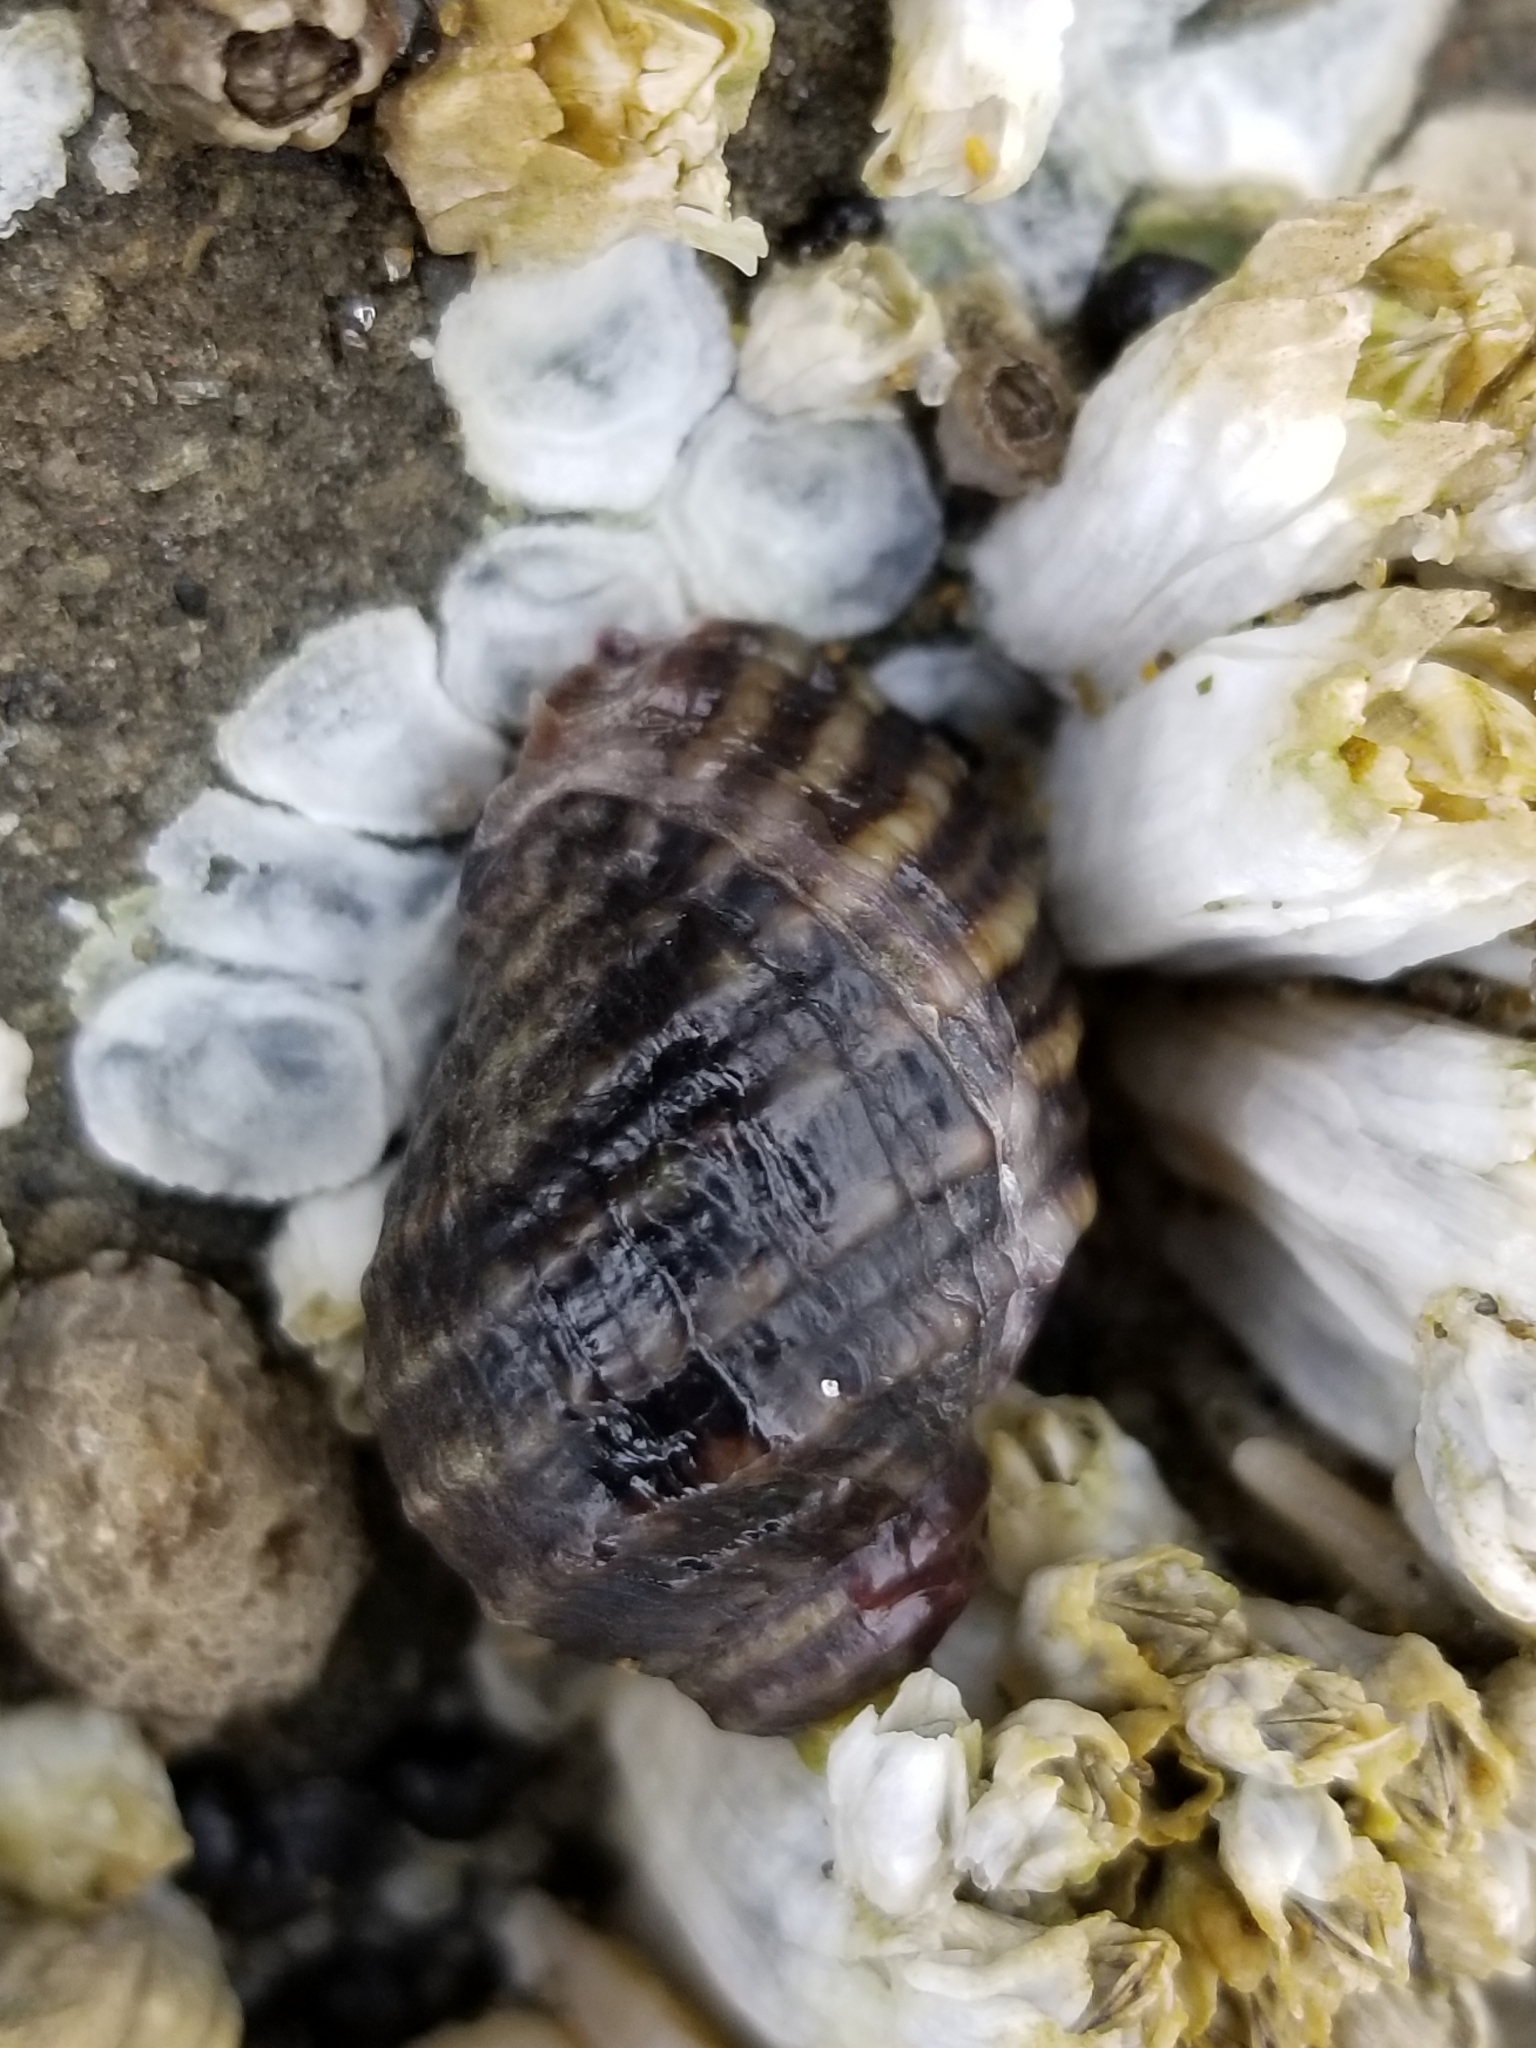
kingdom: Animalia
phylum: Mollusca
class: Gastropoda
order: Neogastropoda
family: Muricidae
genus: Nucella
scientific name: Nucella ostrina
